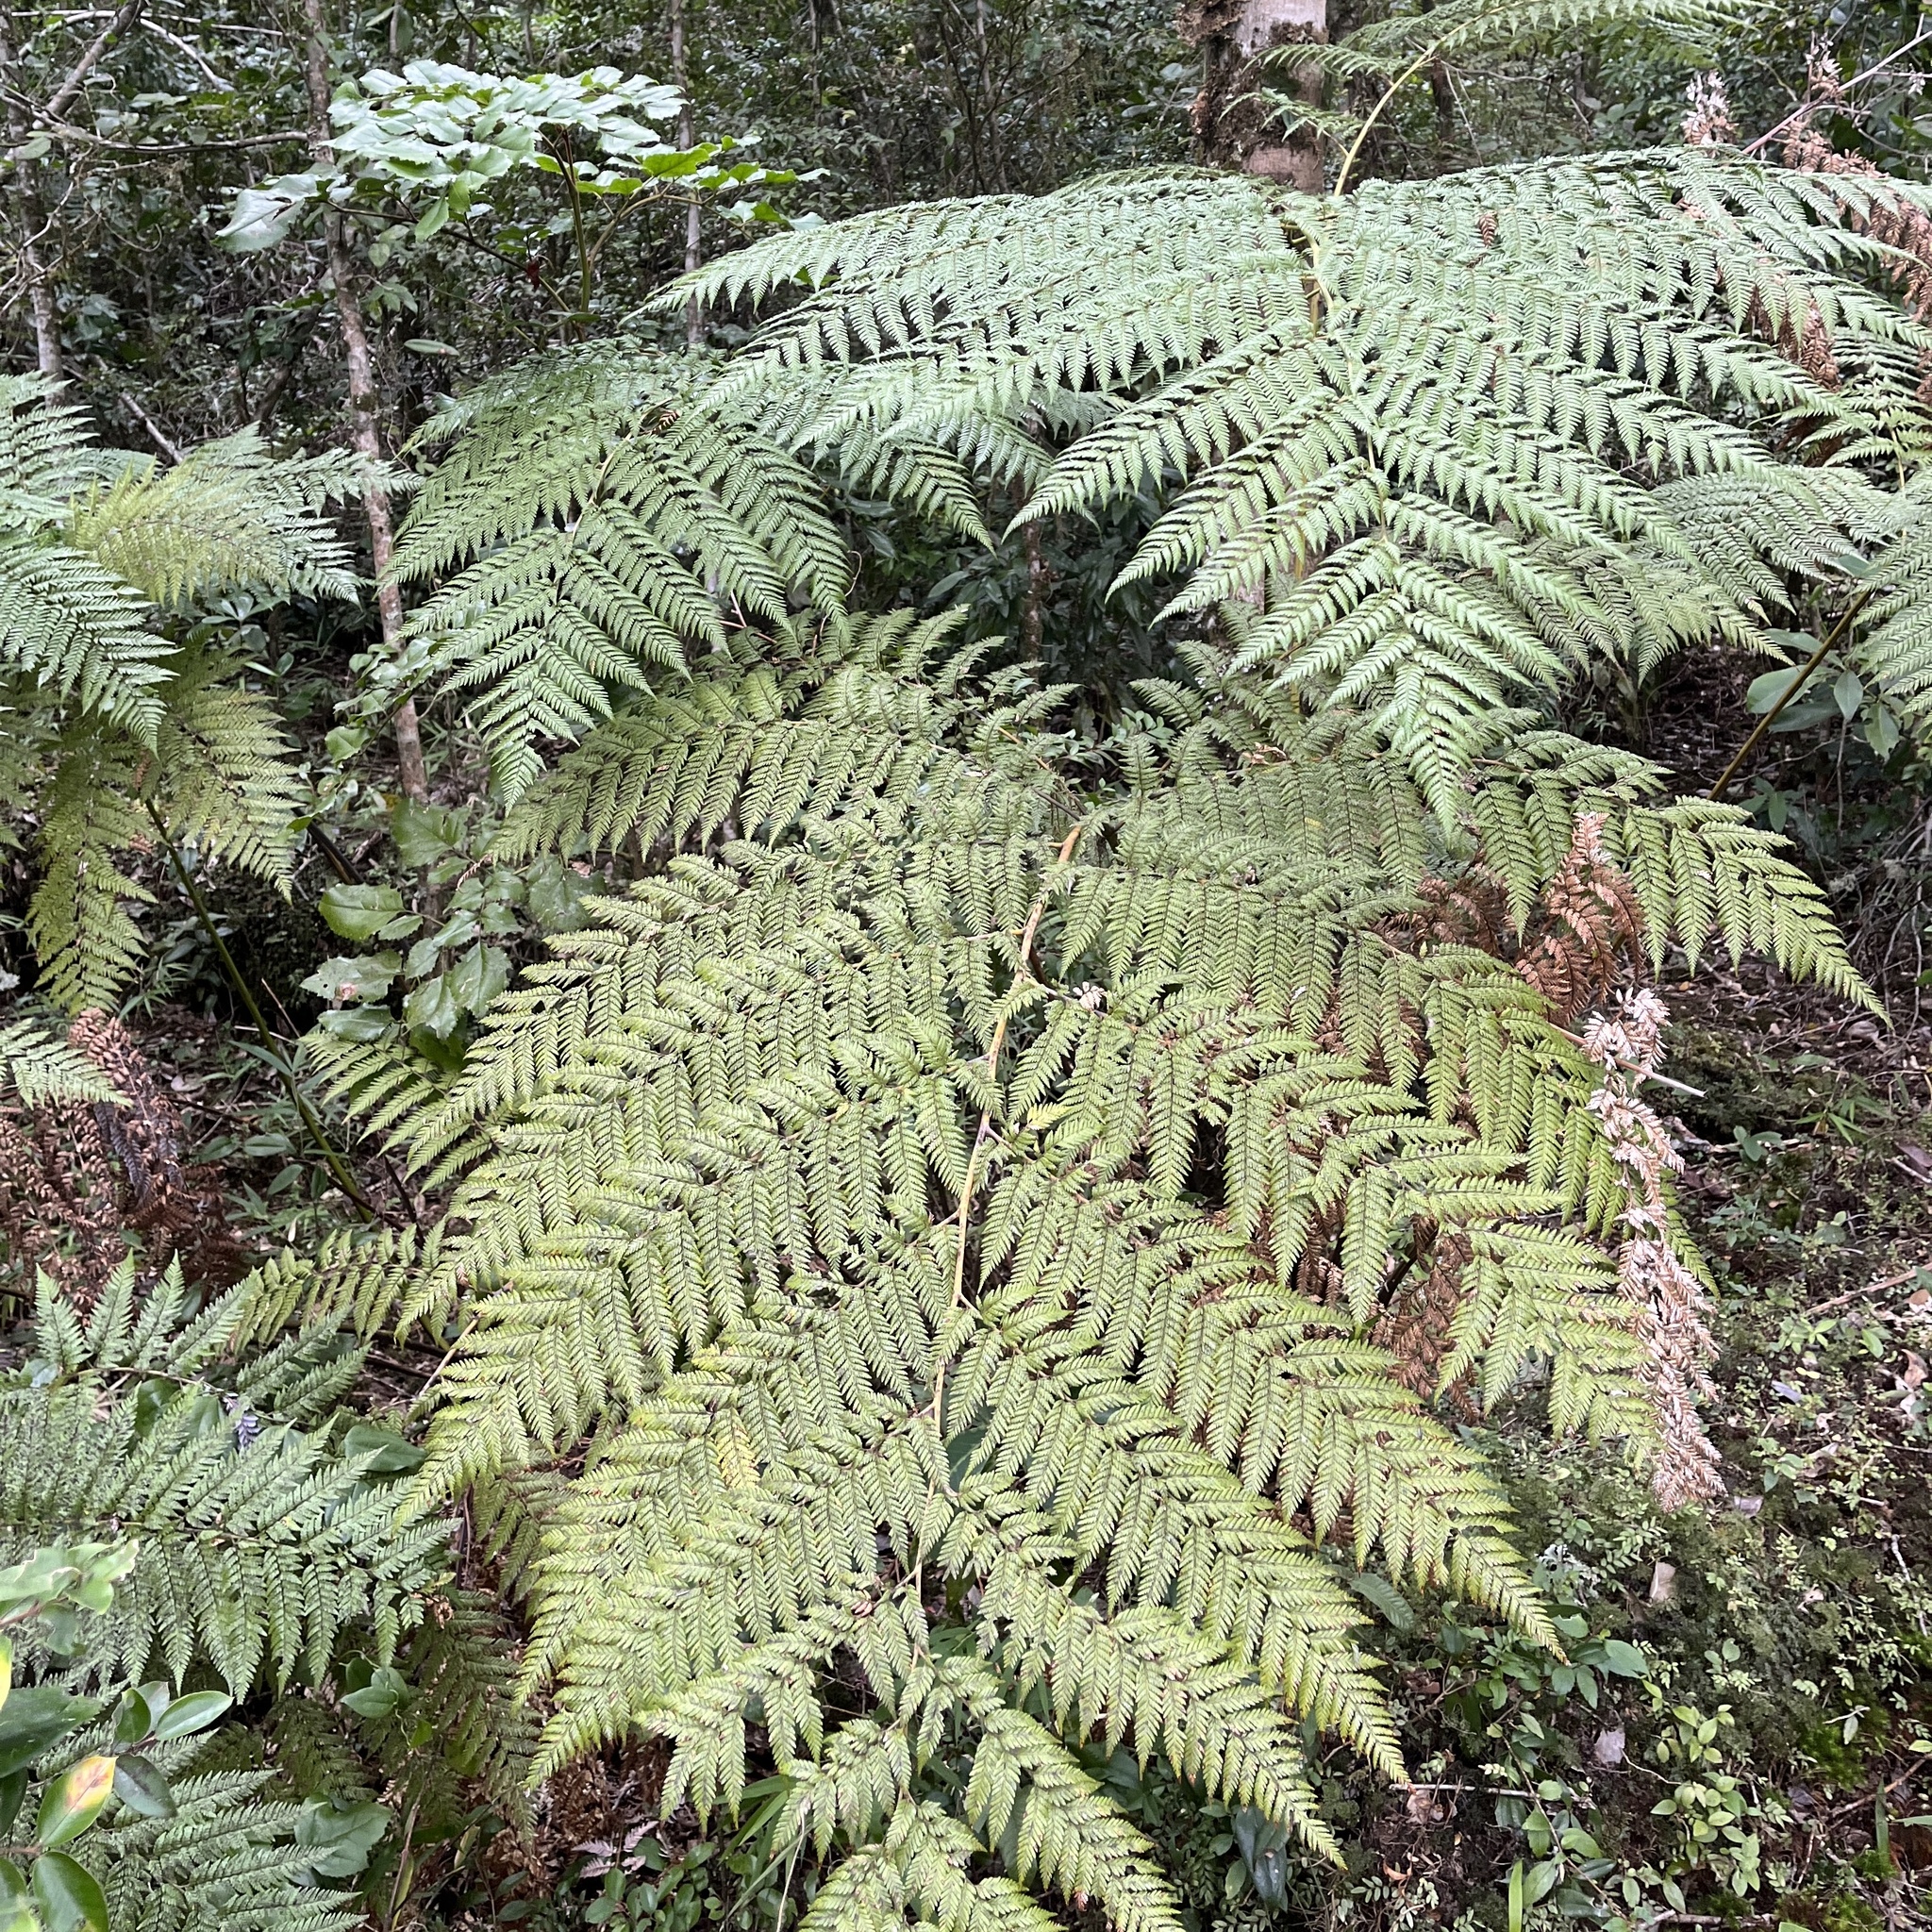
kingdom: Plantae
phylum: Tracheophyta
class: Polypodiopsida
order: Cyatheales
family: Dicksoniaceae
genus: Lophosoria
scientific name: Lophosoria quadripinnata
